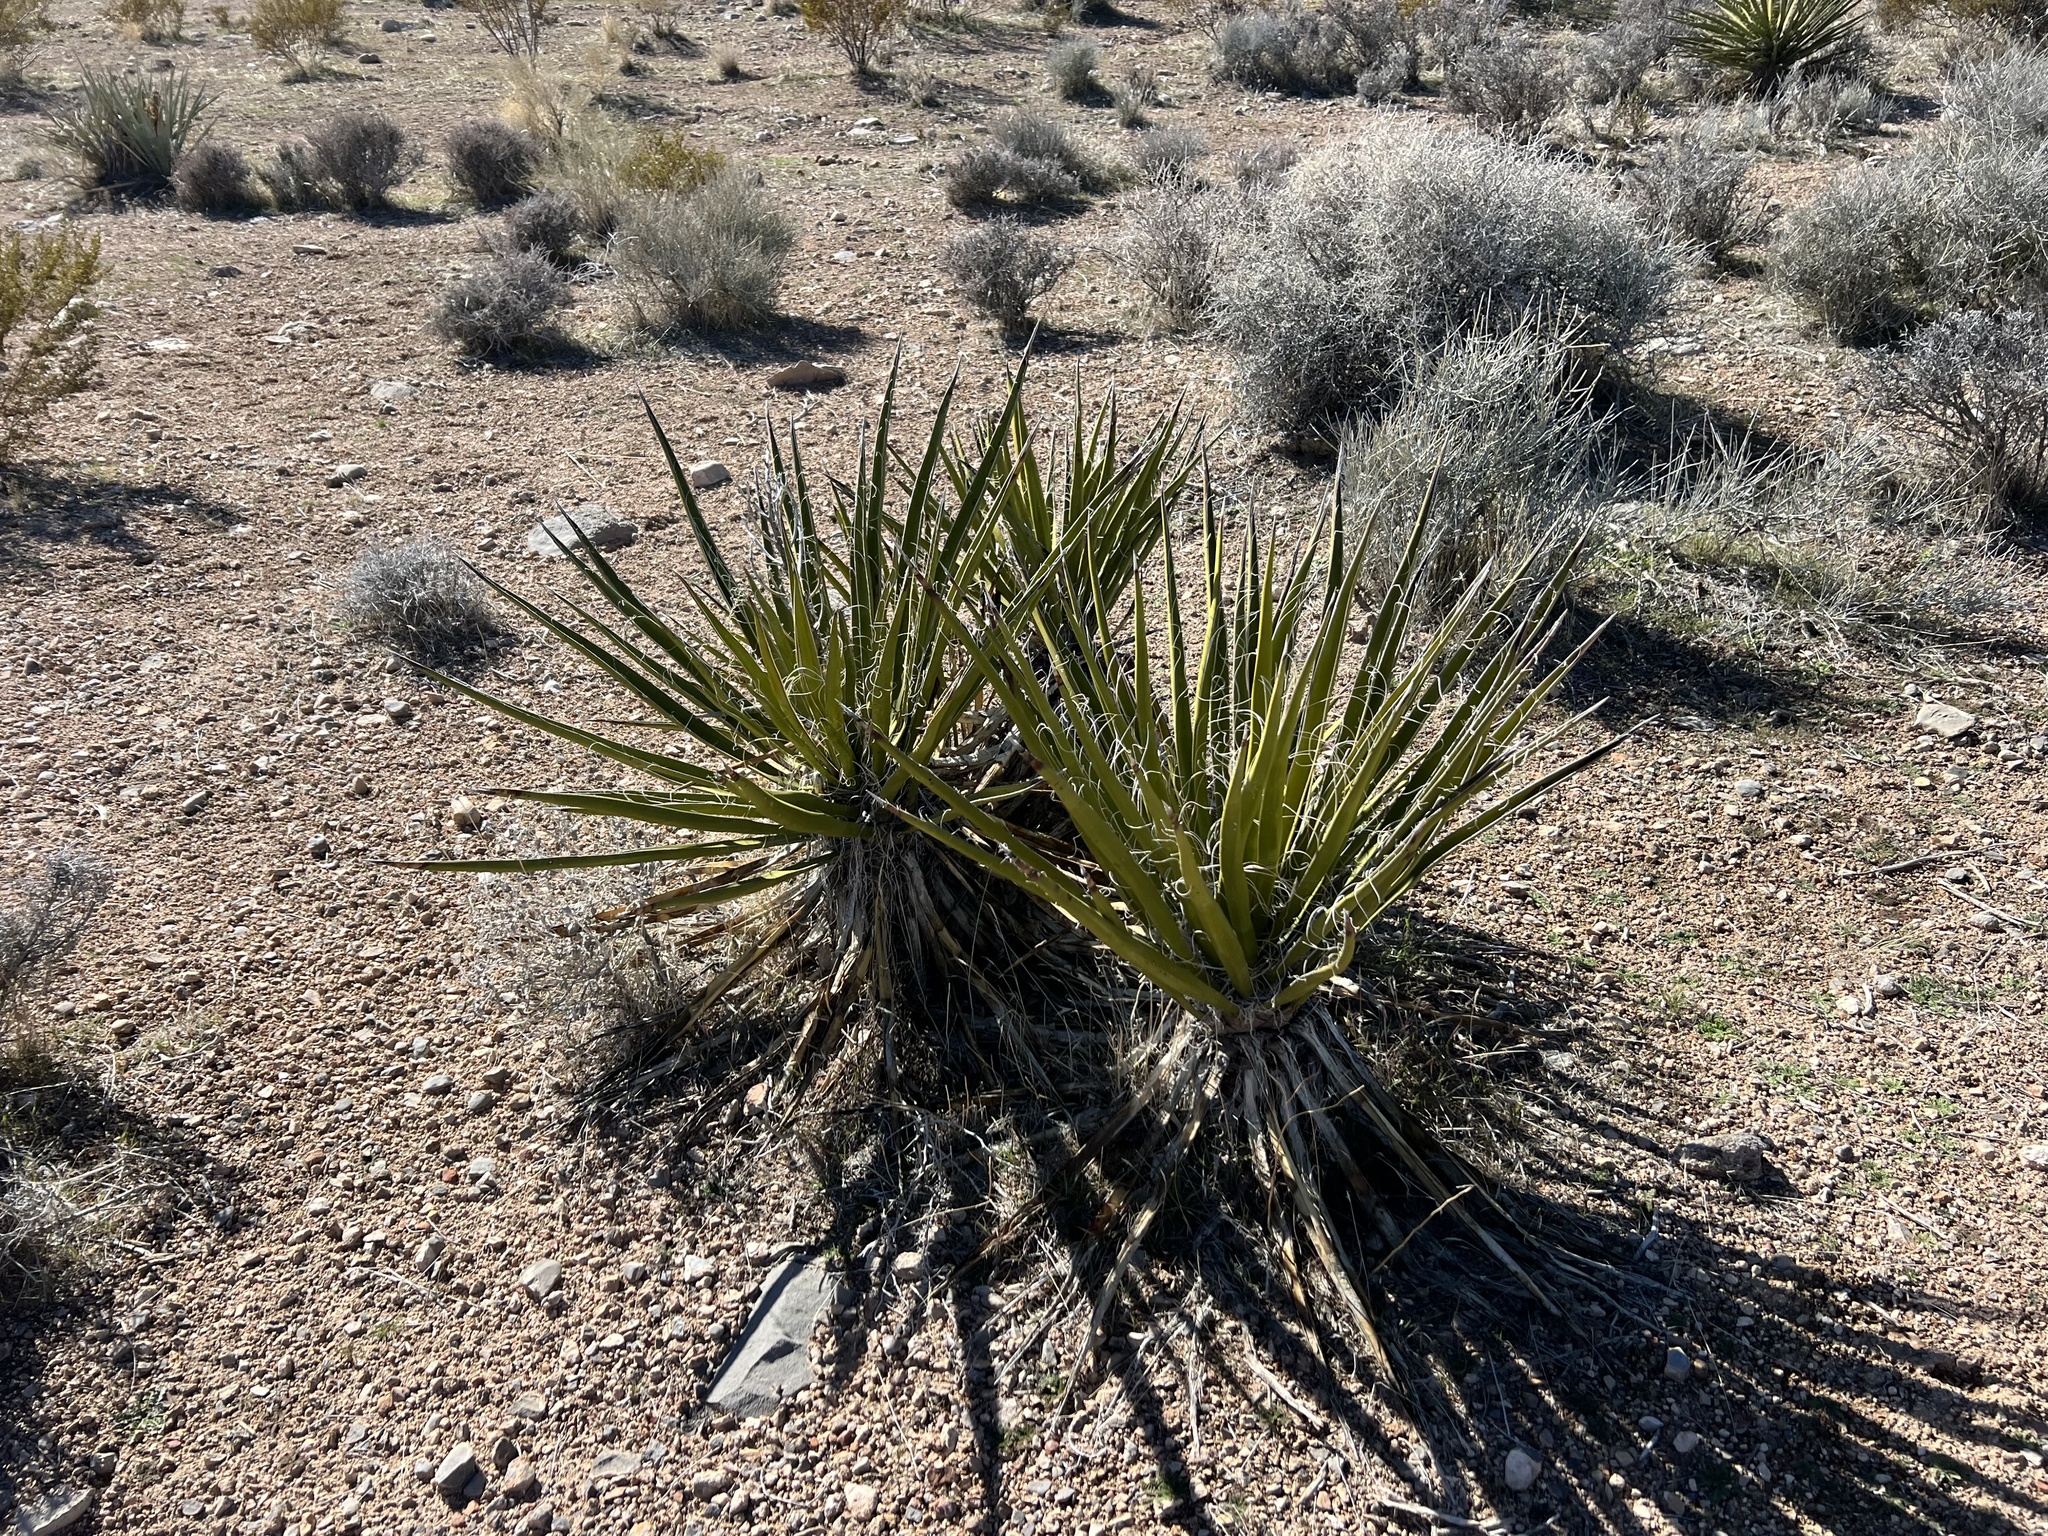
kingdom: Plantae
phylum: Tracheophyta
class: Liliopsida
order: Asparagales
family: Asparagaceae
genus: Yucca
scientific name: Yucca schidigera
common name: Mojave yucca
